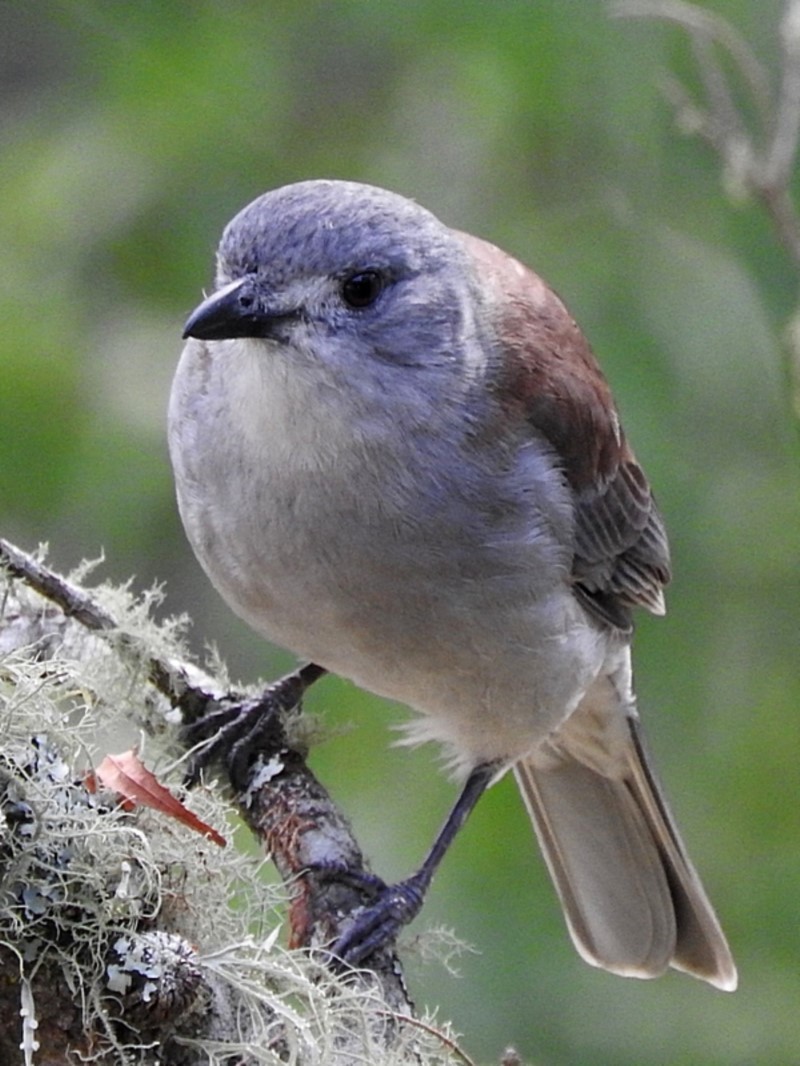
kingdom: Animalia
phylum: Chordata
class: Aves
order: Passeriformes
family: Pachycephalidae
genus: Colluricincla
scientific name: Colluricincla harmonica
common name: Grey shrikethrush
